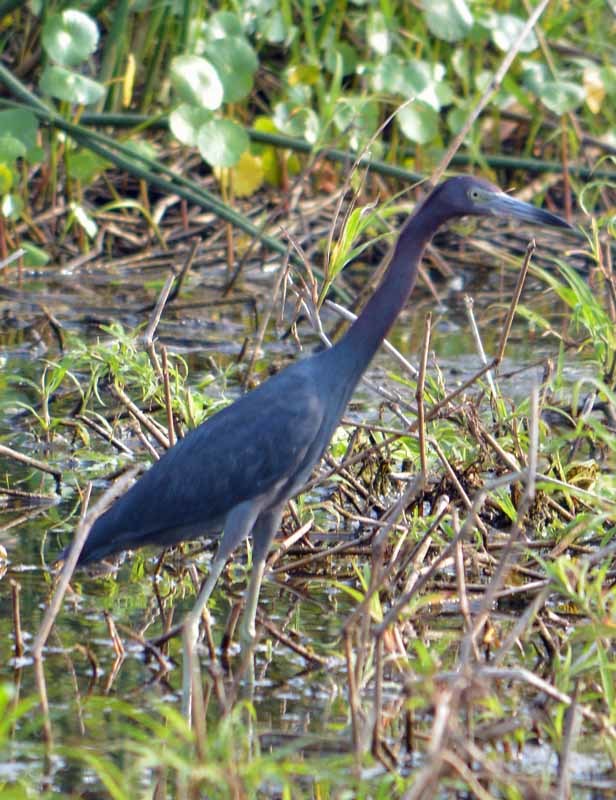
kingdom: Animalia
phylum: Chordata
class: Aves
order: Pelecaniformes
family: Ardeidae
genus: Egretta
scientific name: Egretta tricolor
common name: Tricolored heron
